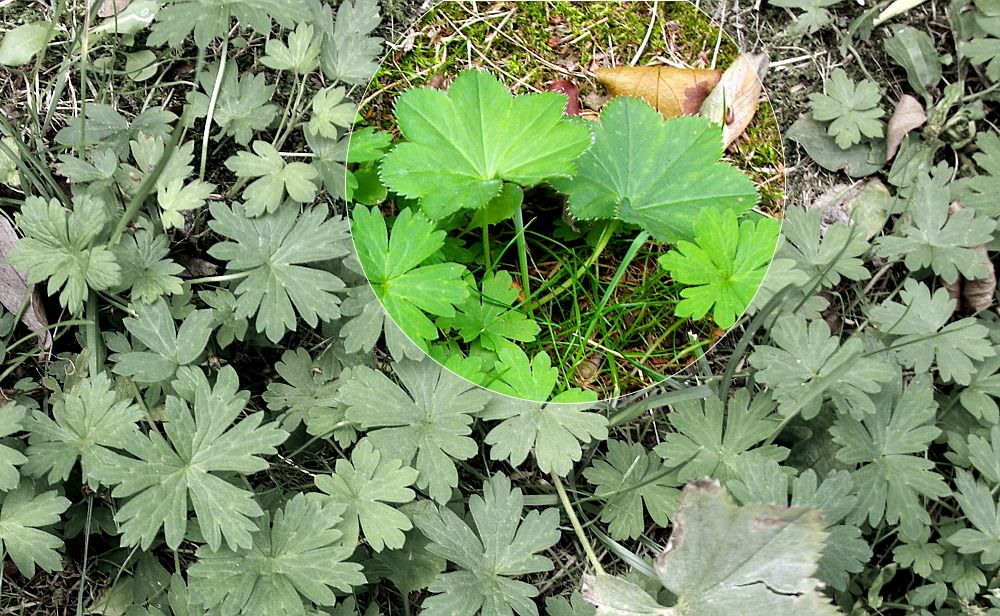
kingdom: Plantae
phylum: Tracheophyta
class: Magnoliopsida
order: Rosales
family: Rosaceae
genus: Alchemilla
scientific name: Alchemilla
